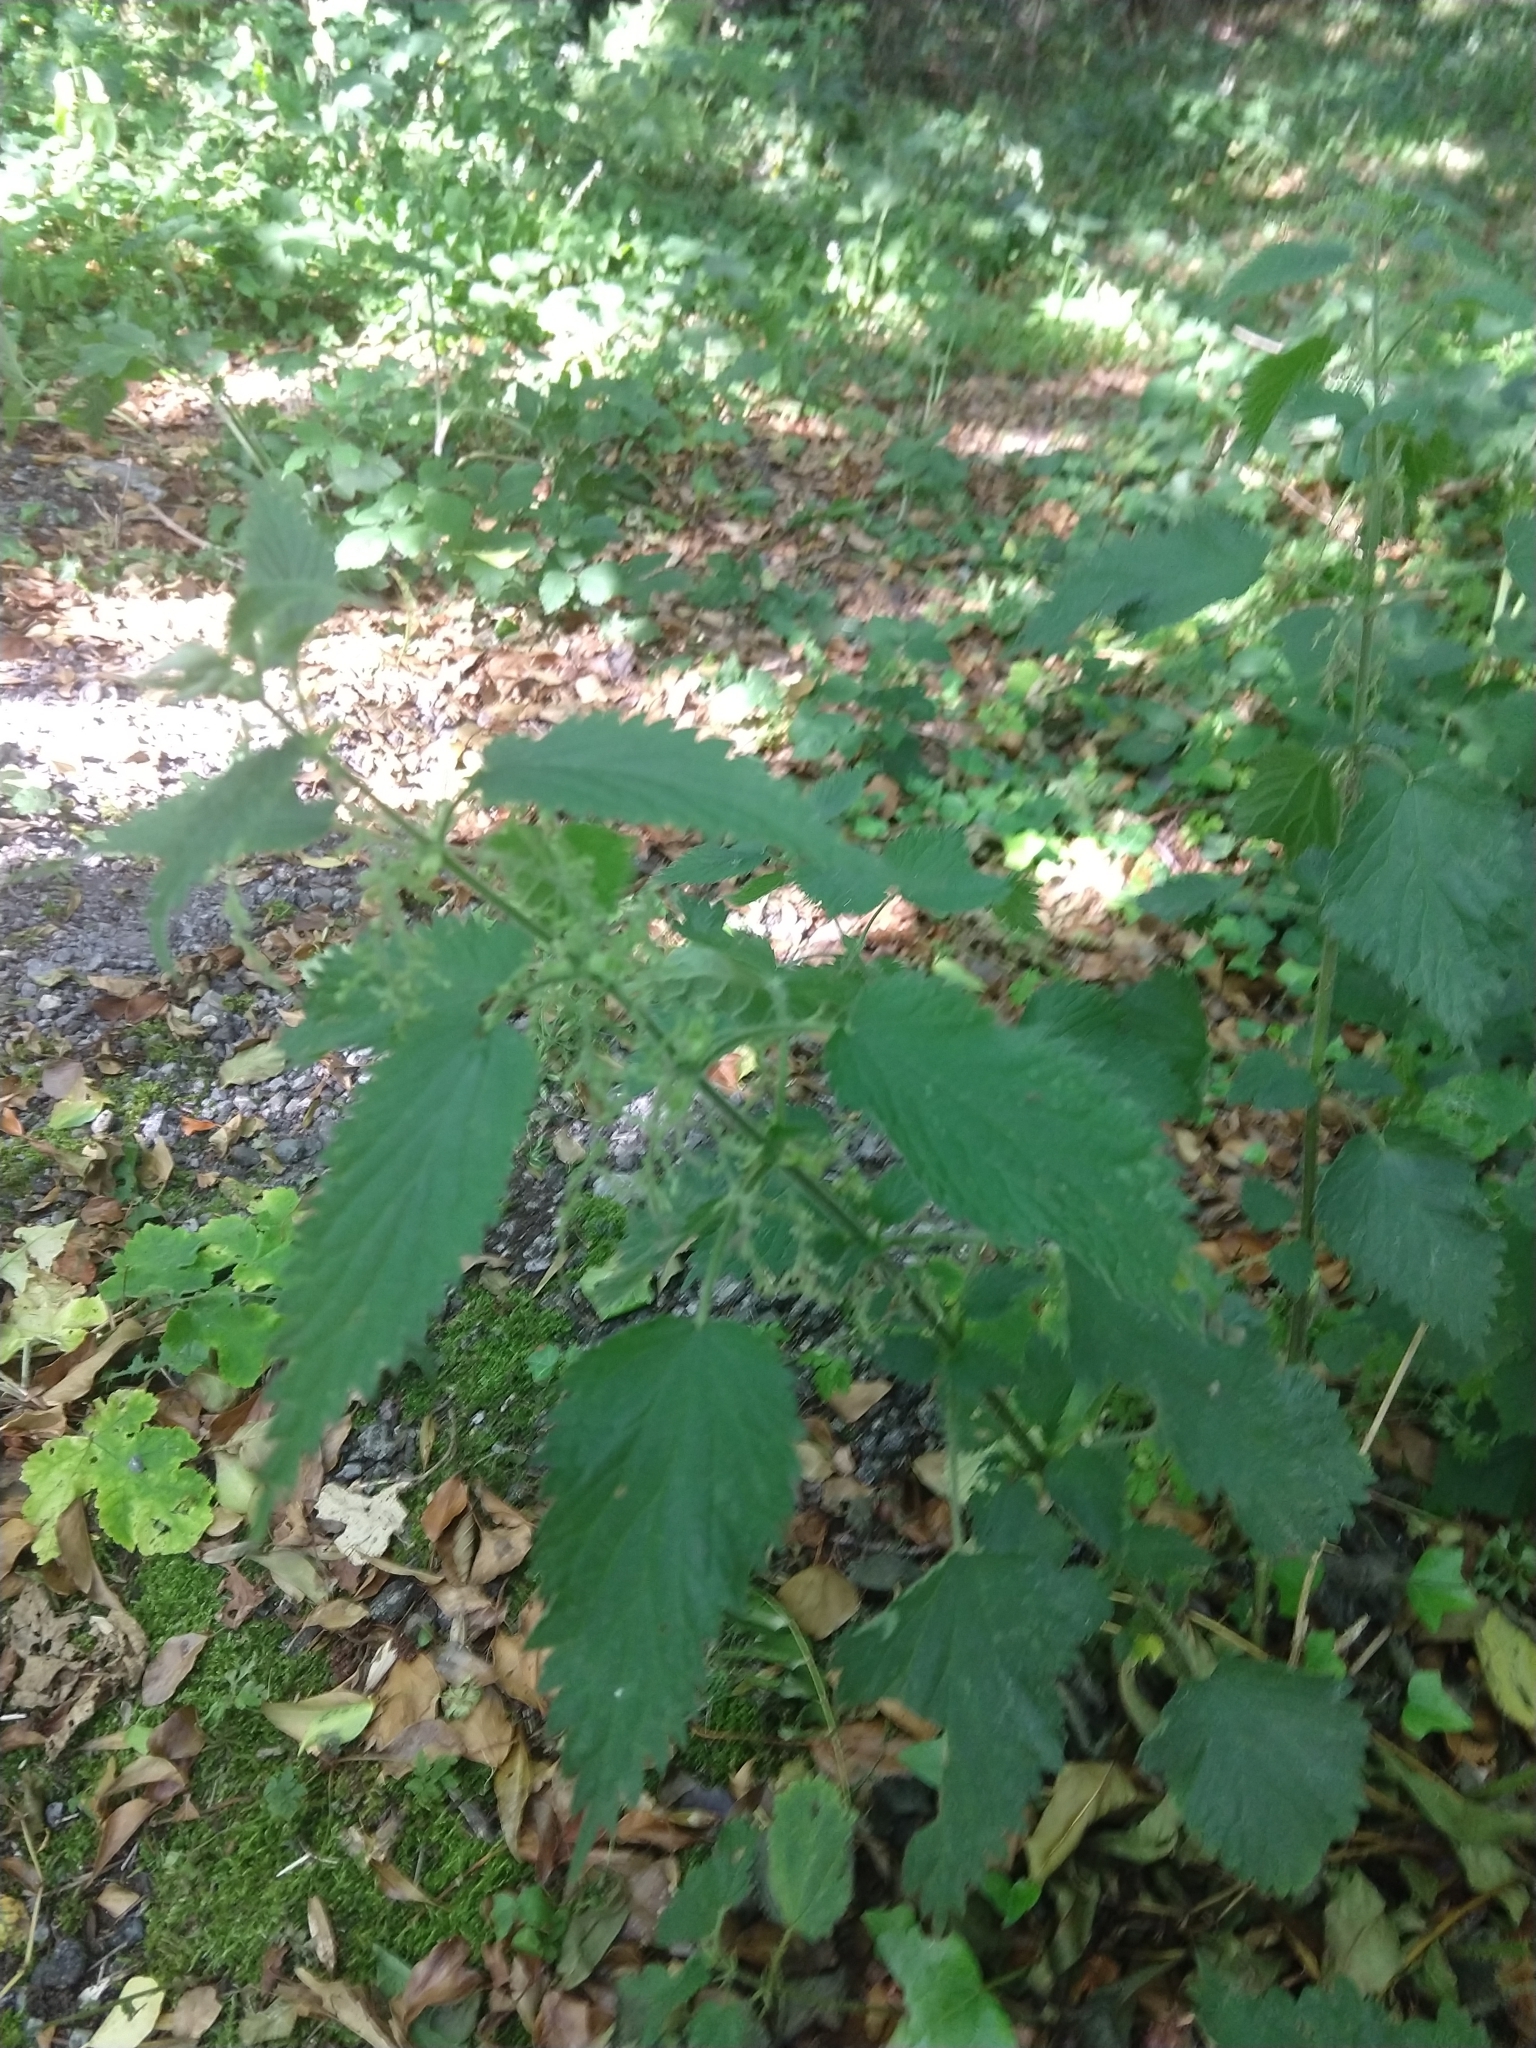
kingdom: Plantae
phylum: Tracheophyta
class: Magnoliopsida
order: Rosales
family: Urticaceae
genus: Urtica
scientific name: Urtica dioica
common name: Common nettle
